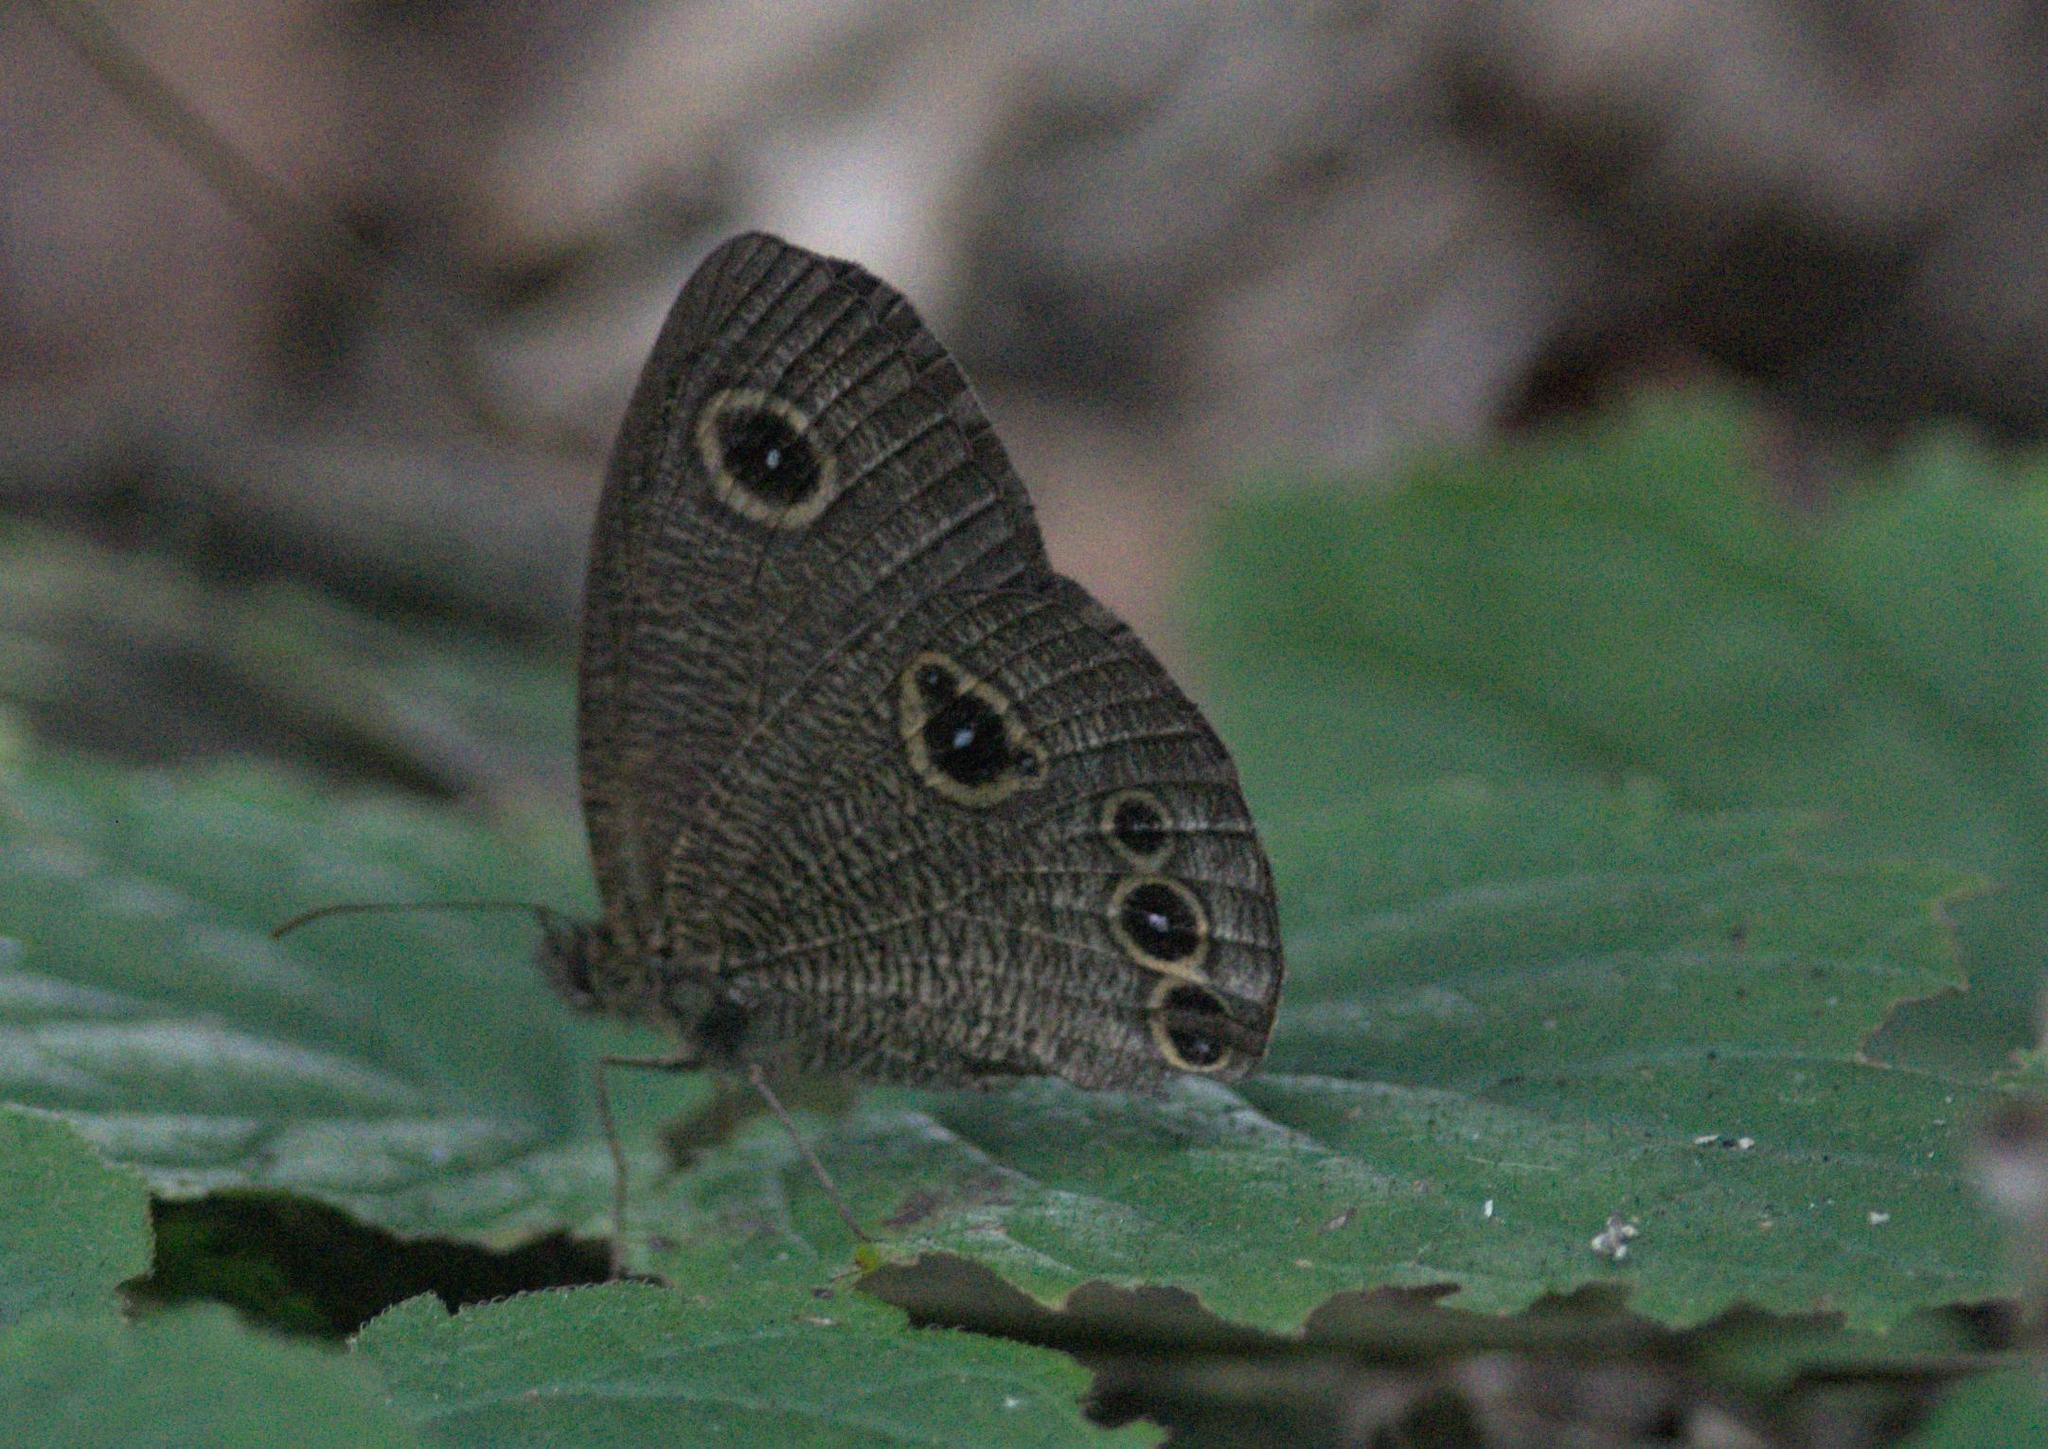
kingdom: Animalia
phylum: Arthropoda
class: Insecta
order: Lepidoptera
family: Nymphalidae
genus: Ypthima
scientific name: Ypthima nikaea
